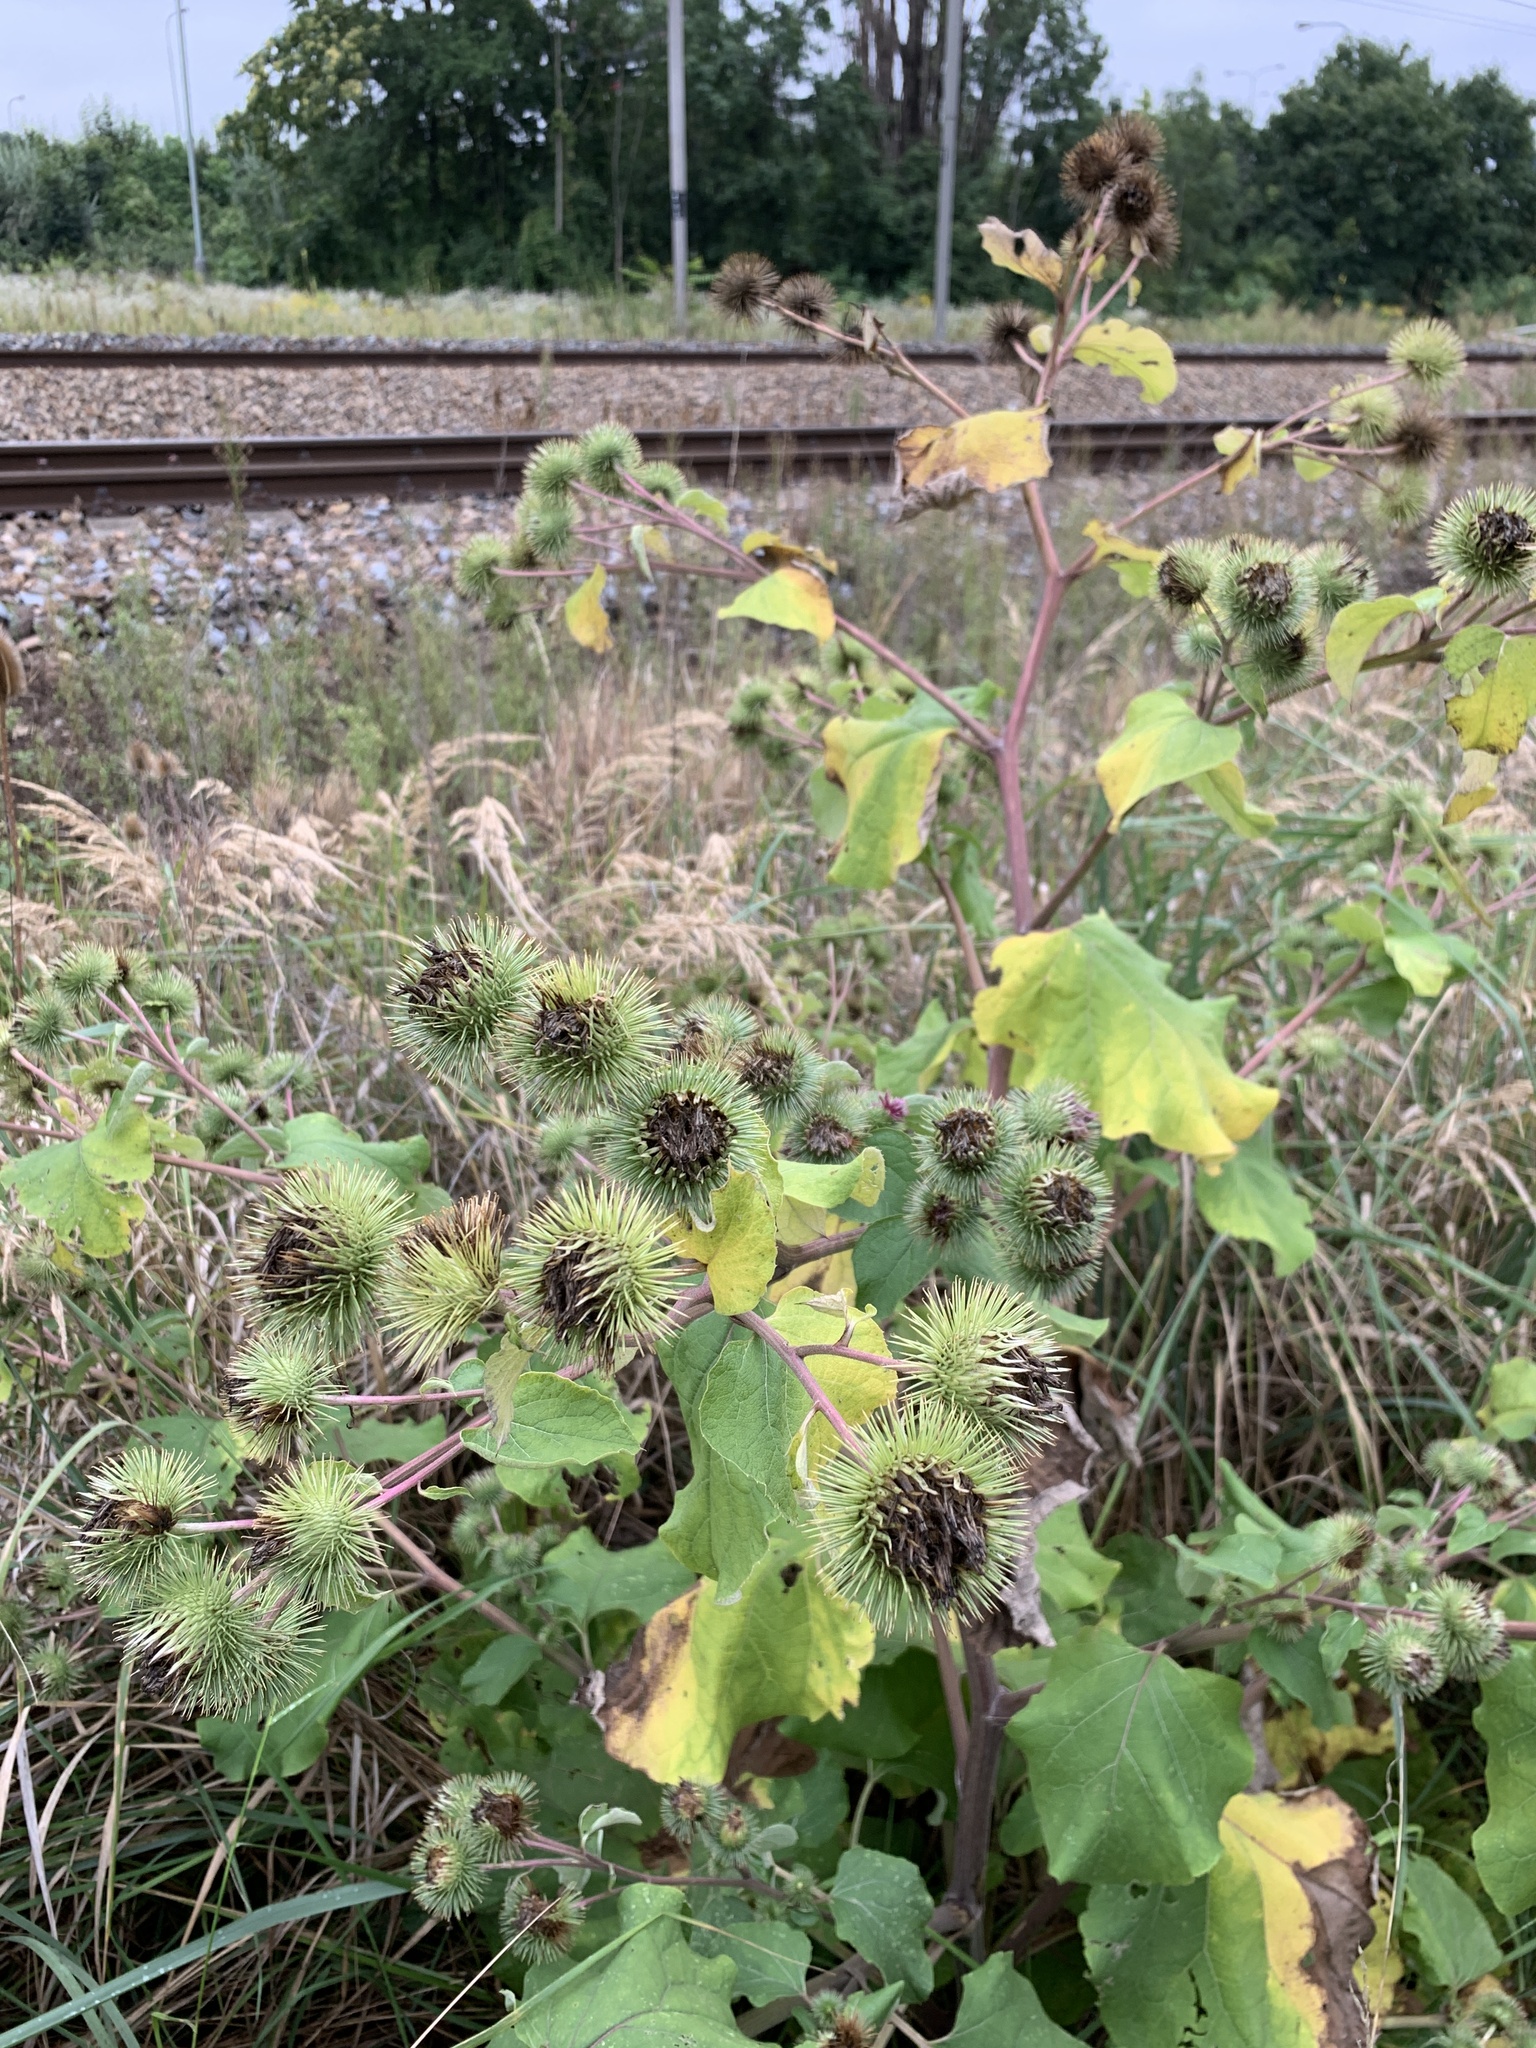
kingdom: Plantae
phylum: Tracheophyta
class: Magnoliopsida
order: Asterales
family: Asteraceae
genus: Arctium
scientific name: Arctium lappa
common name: Greater burdock
